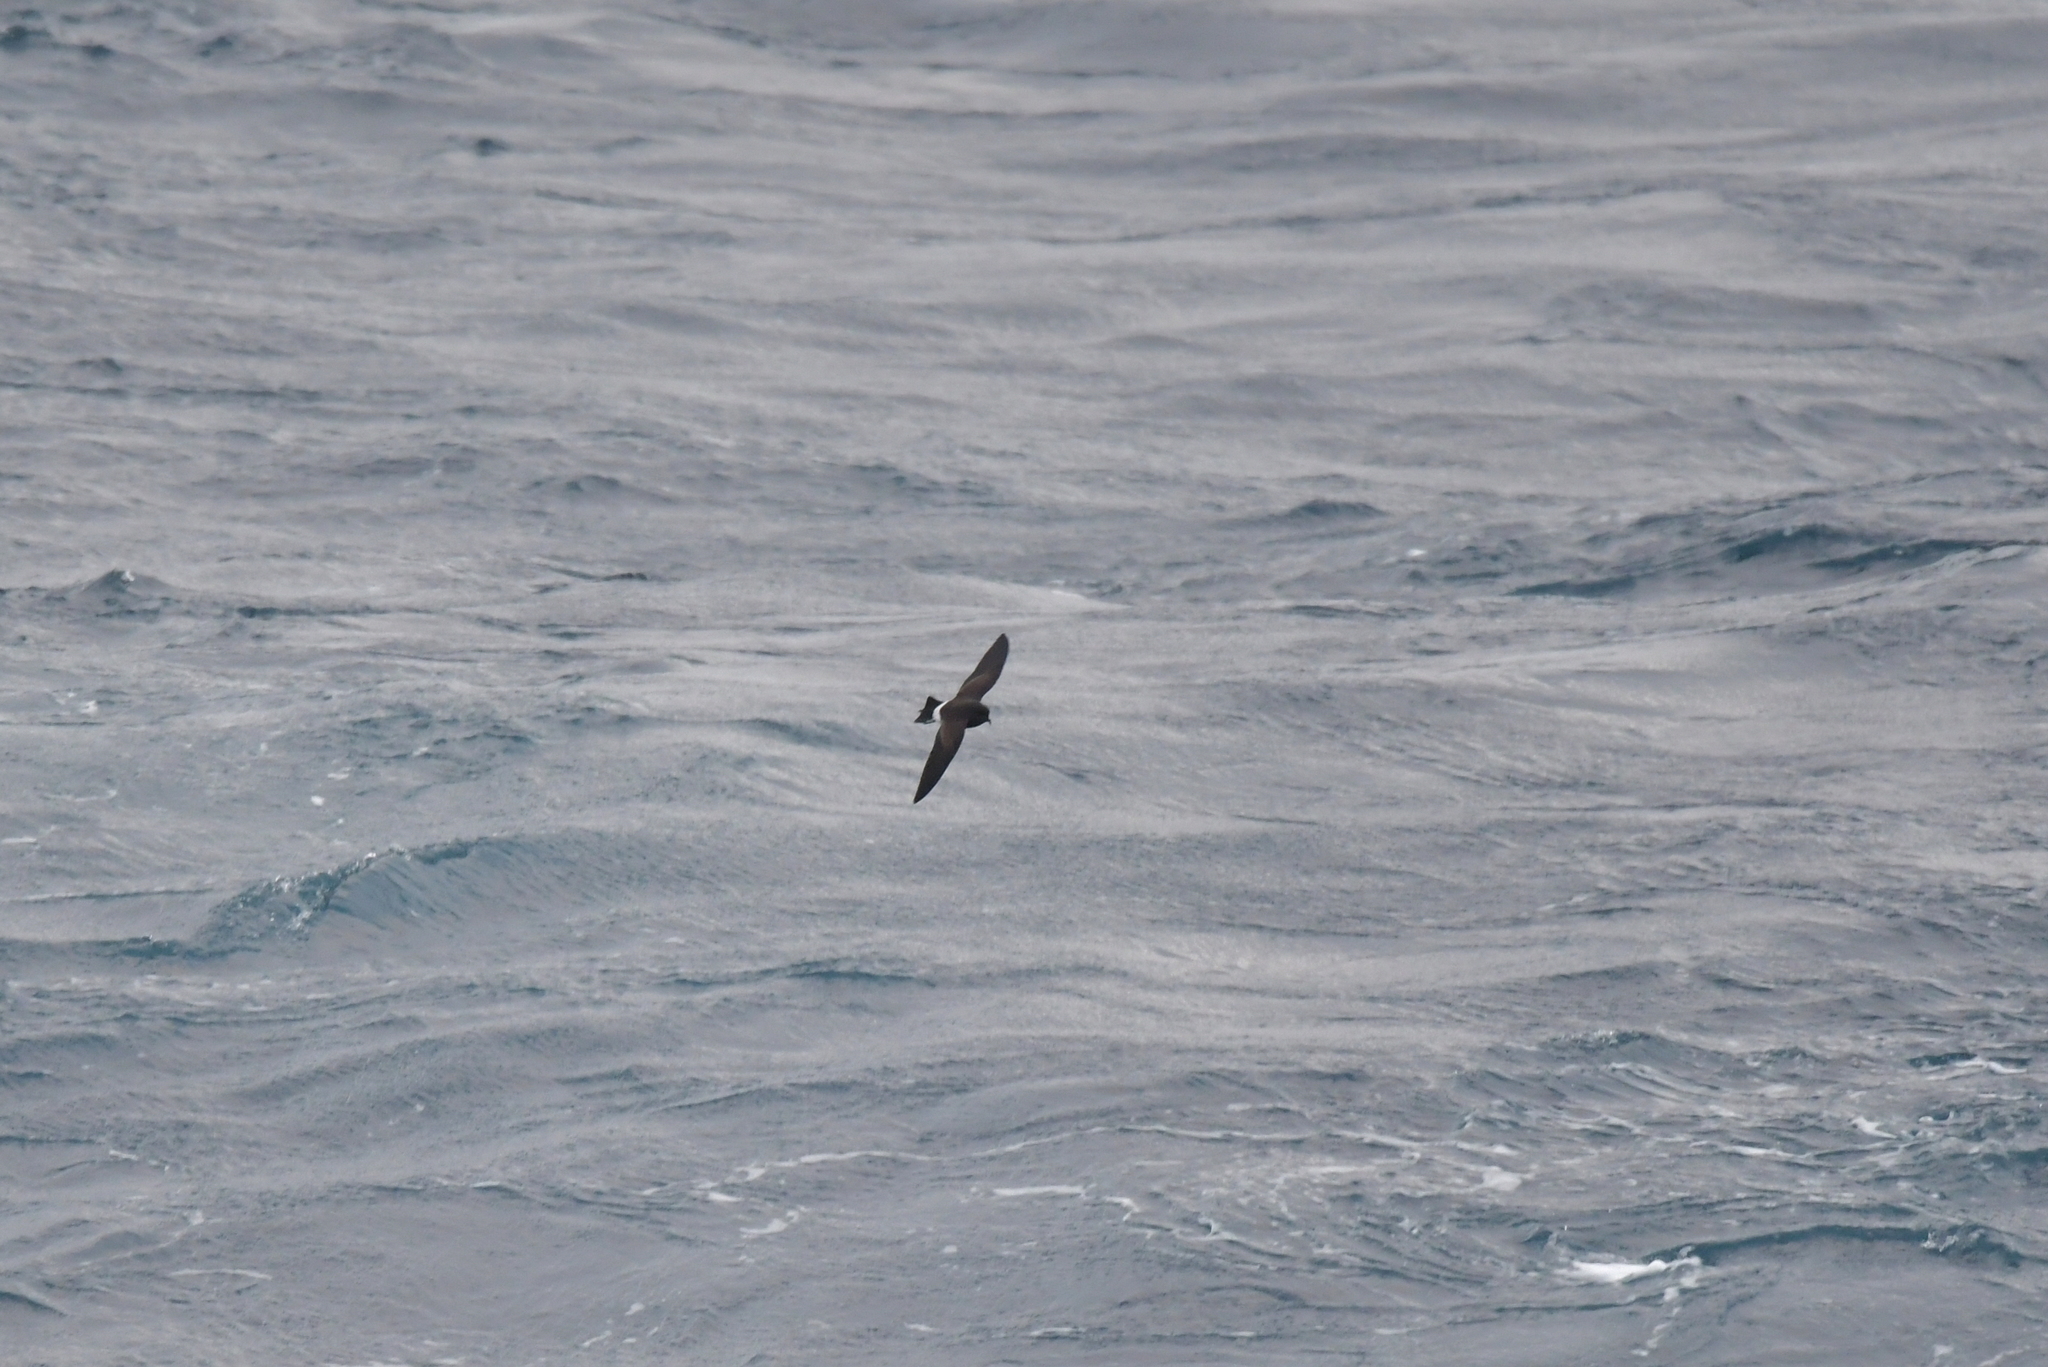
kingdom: Animalia
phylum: Chordata
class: Aves
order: Procellariiformes
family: Hydrobatidae
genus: Fregetta
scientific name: Fregetta tropica
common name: Black-bellied storm-petrel
